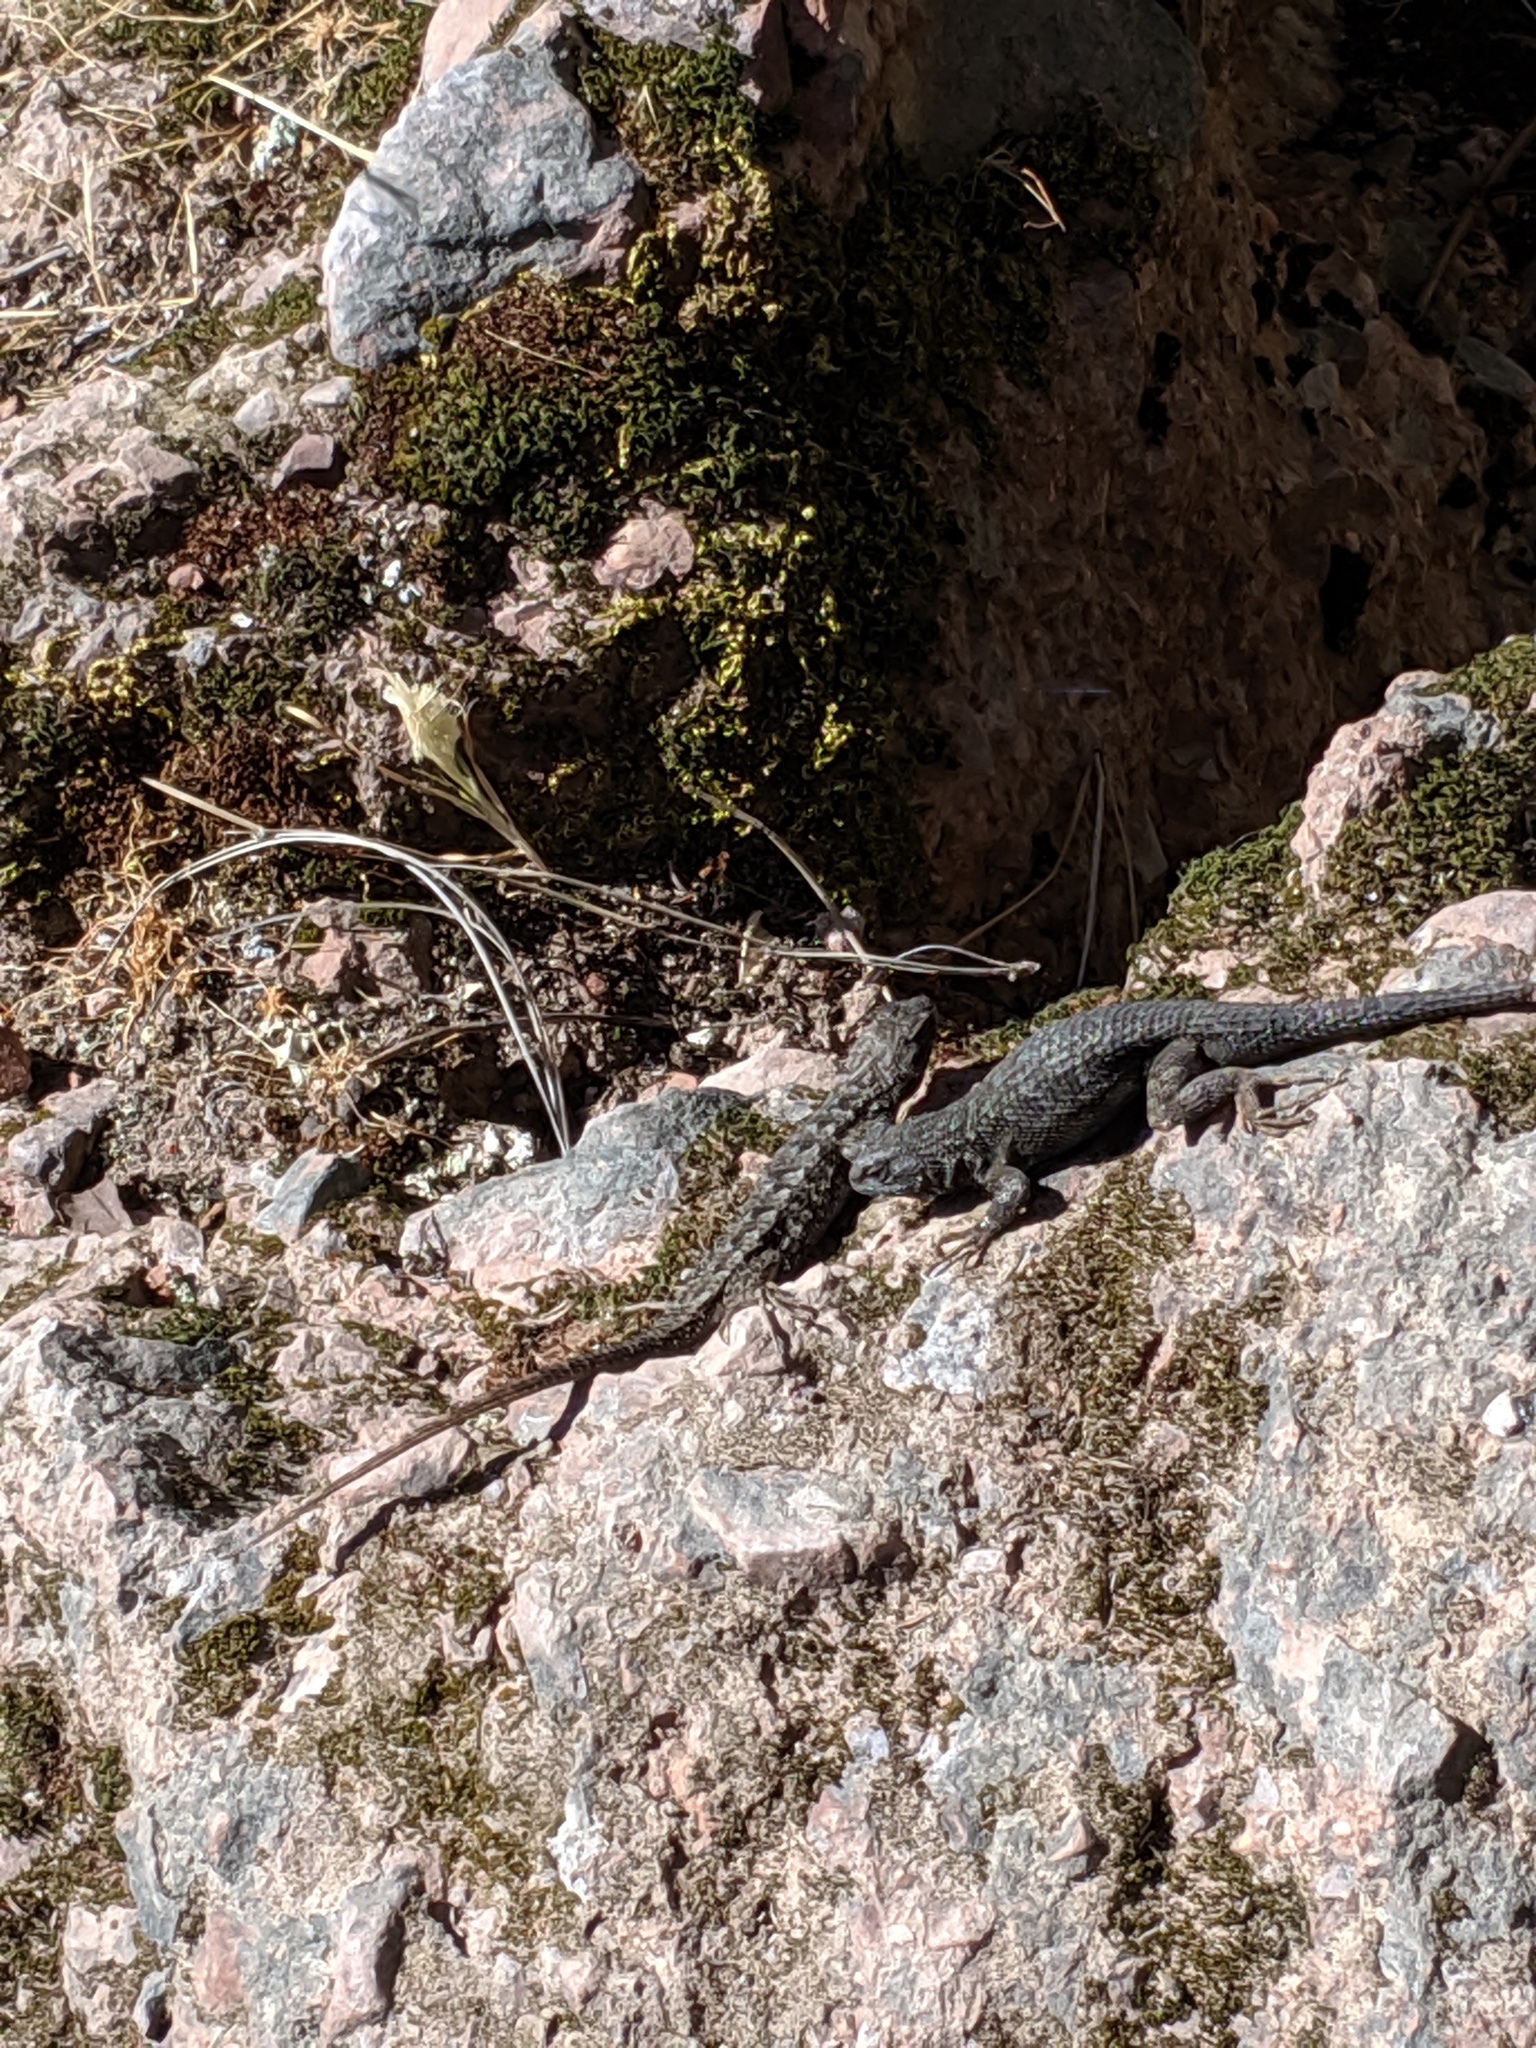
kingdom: Animalia
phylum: Chordata
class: Squamata
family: Phrynosomatidae
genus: Sceloporus
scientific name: Sceloporus occidentalis
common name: Western fence lizard
